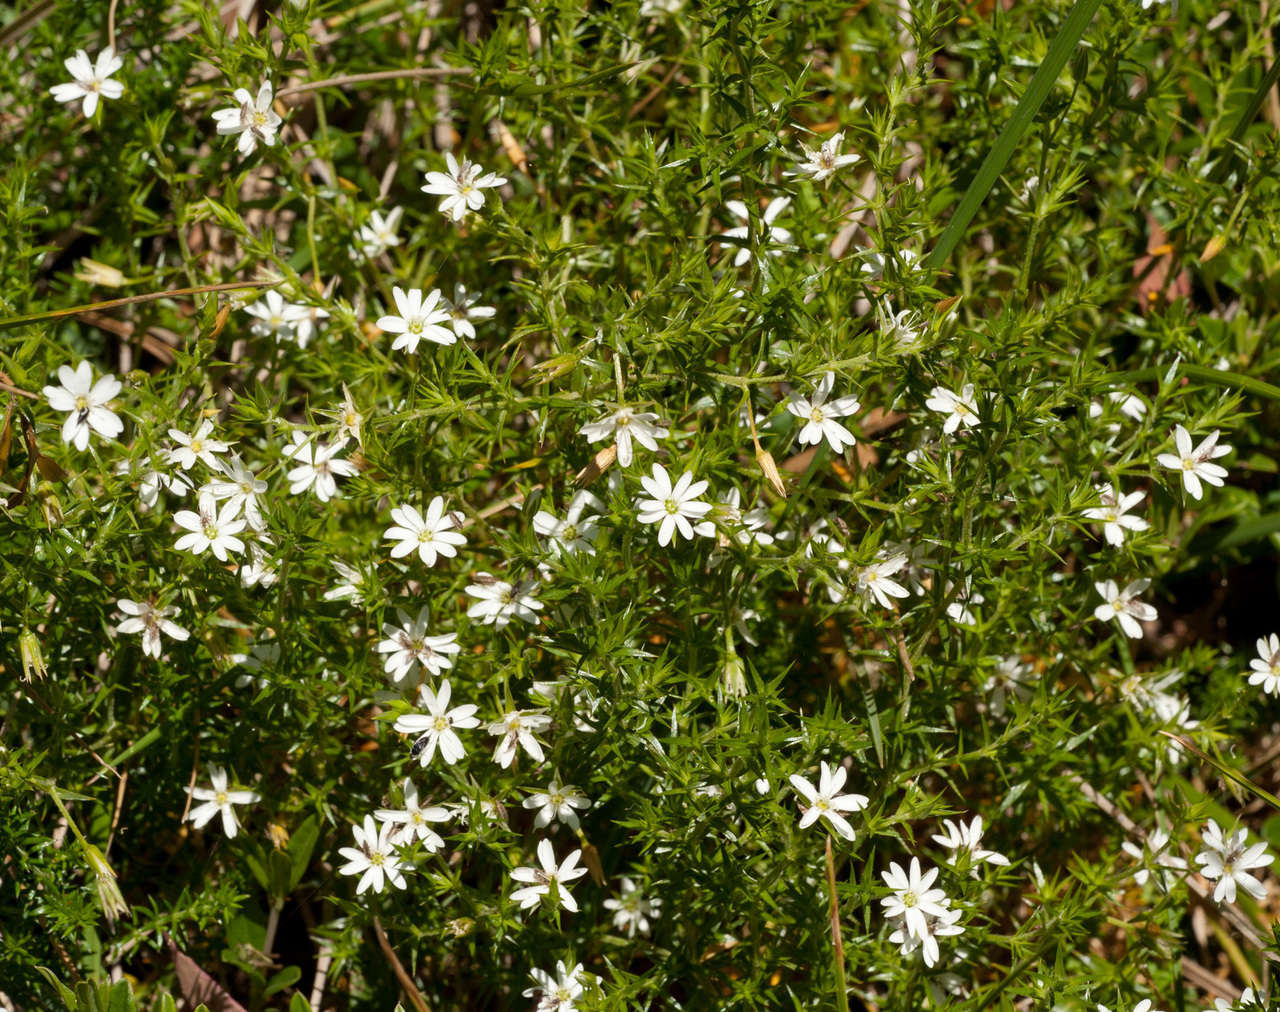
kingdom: Plantae
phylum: Tracheophyta
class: Magnoliopsida
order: Caryophyllales
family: Caryophyllaceae
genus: Stellaria
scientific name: Stellaria pungens
